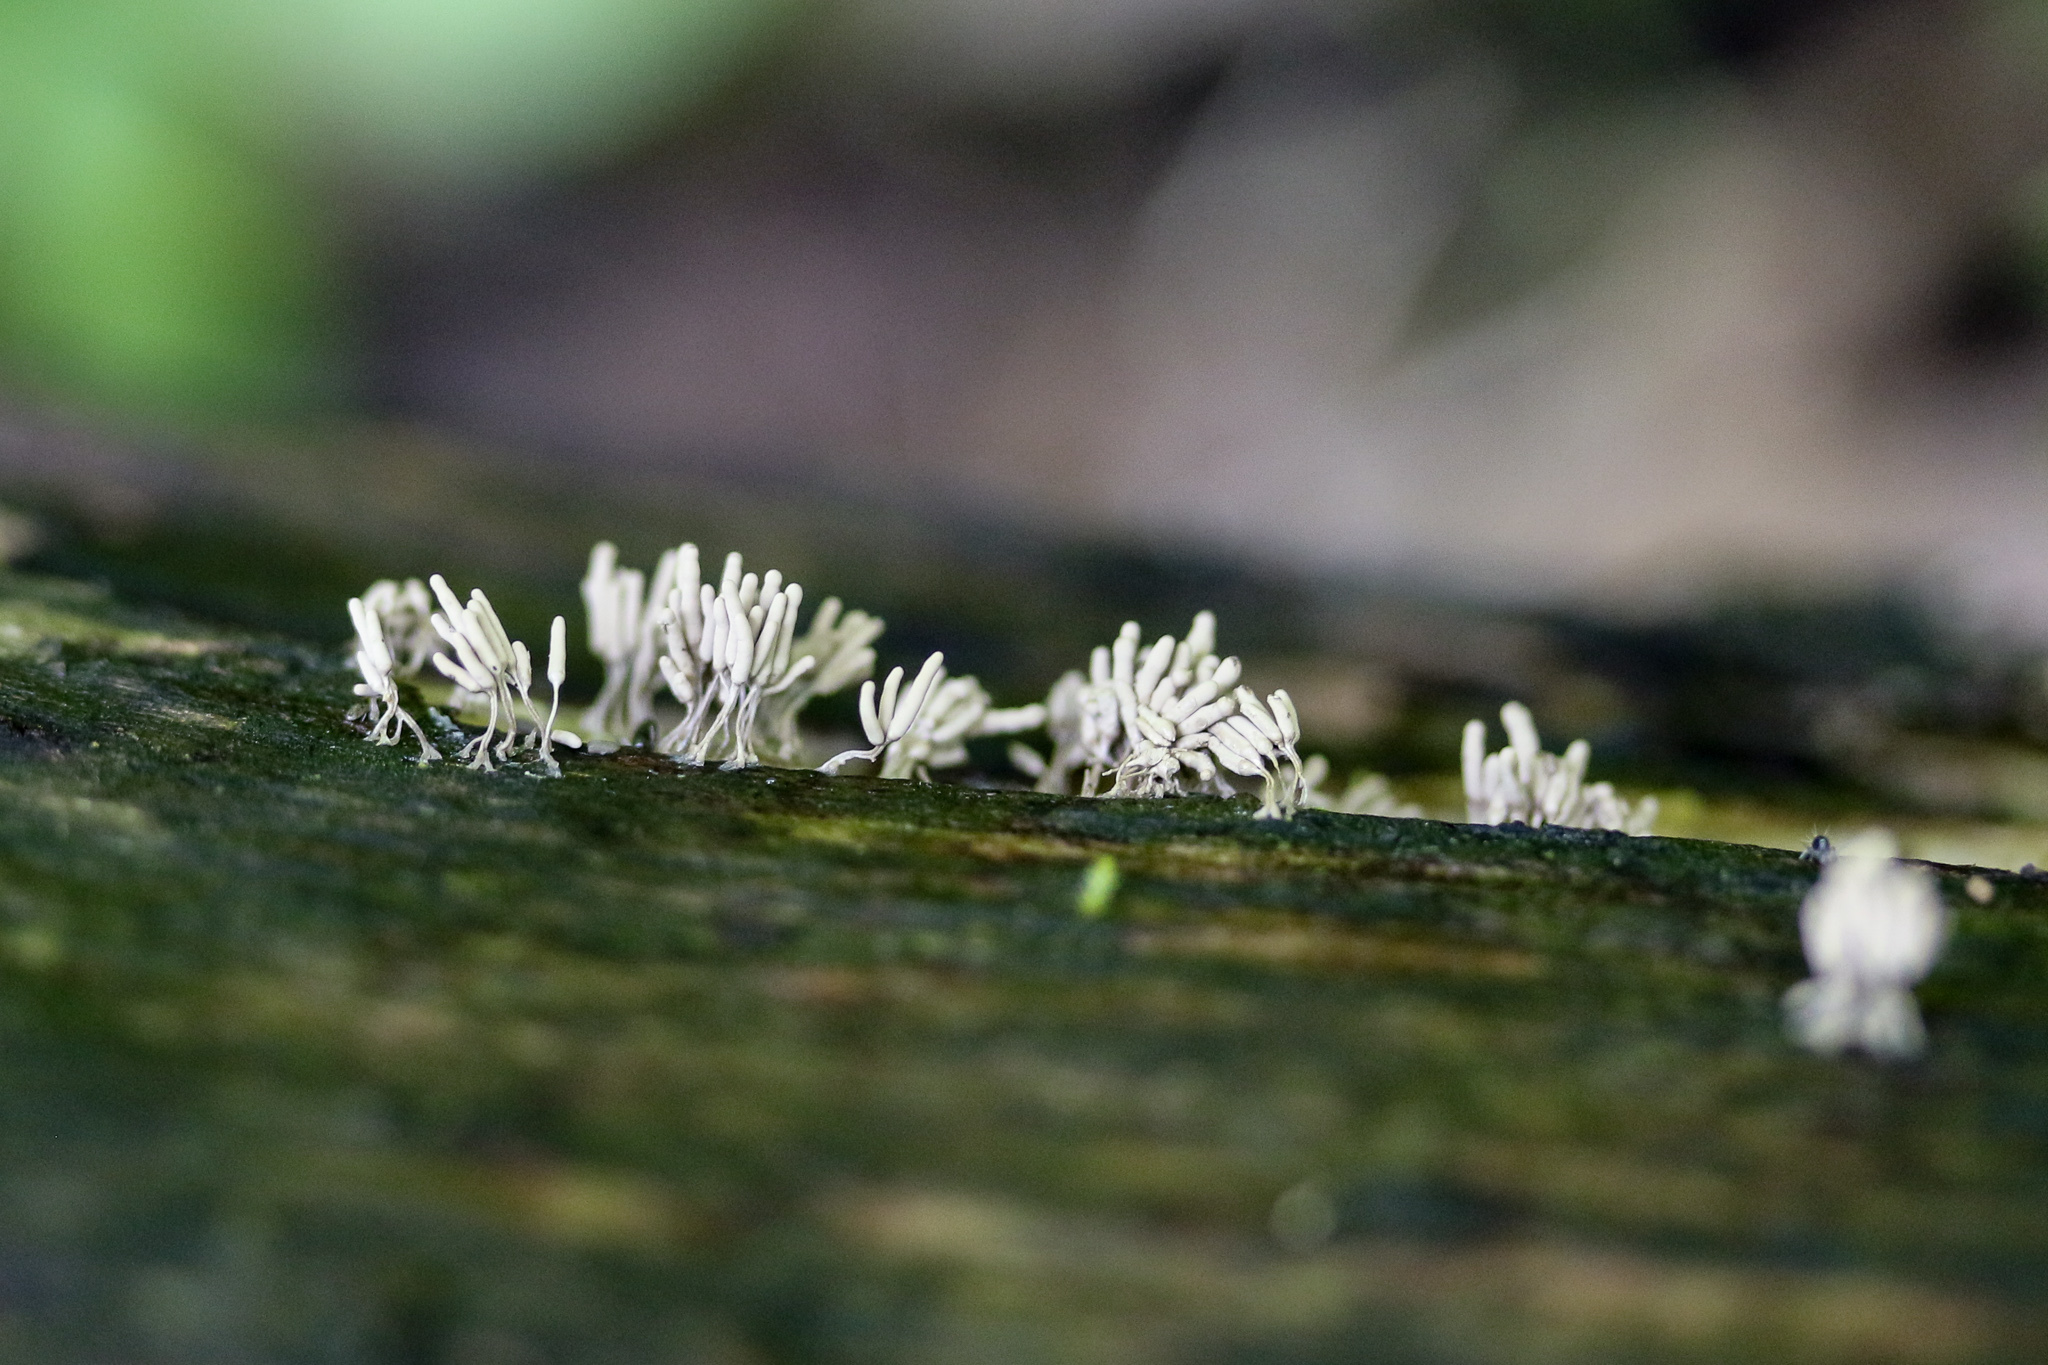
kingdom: Protozoa
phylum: Mycetozoa
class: Myxomycetes
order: Trichiales
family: Arcyriaceae
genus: Arcyria
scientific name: Arcyria cinerea
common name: White carnival candy slime mold
